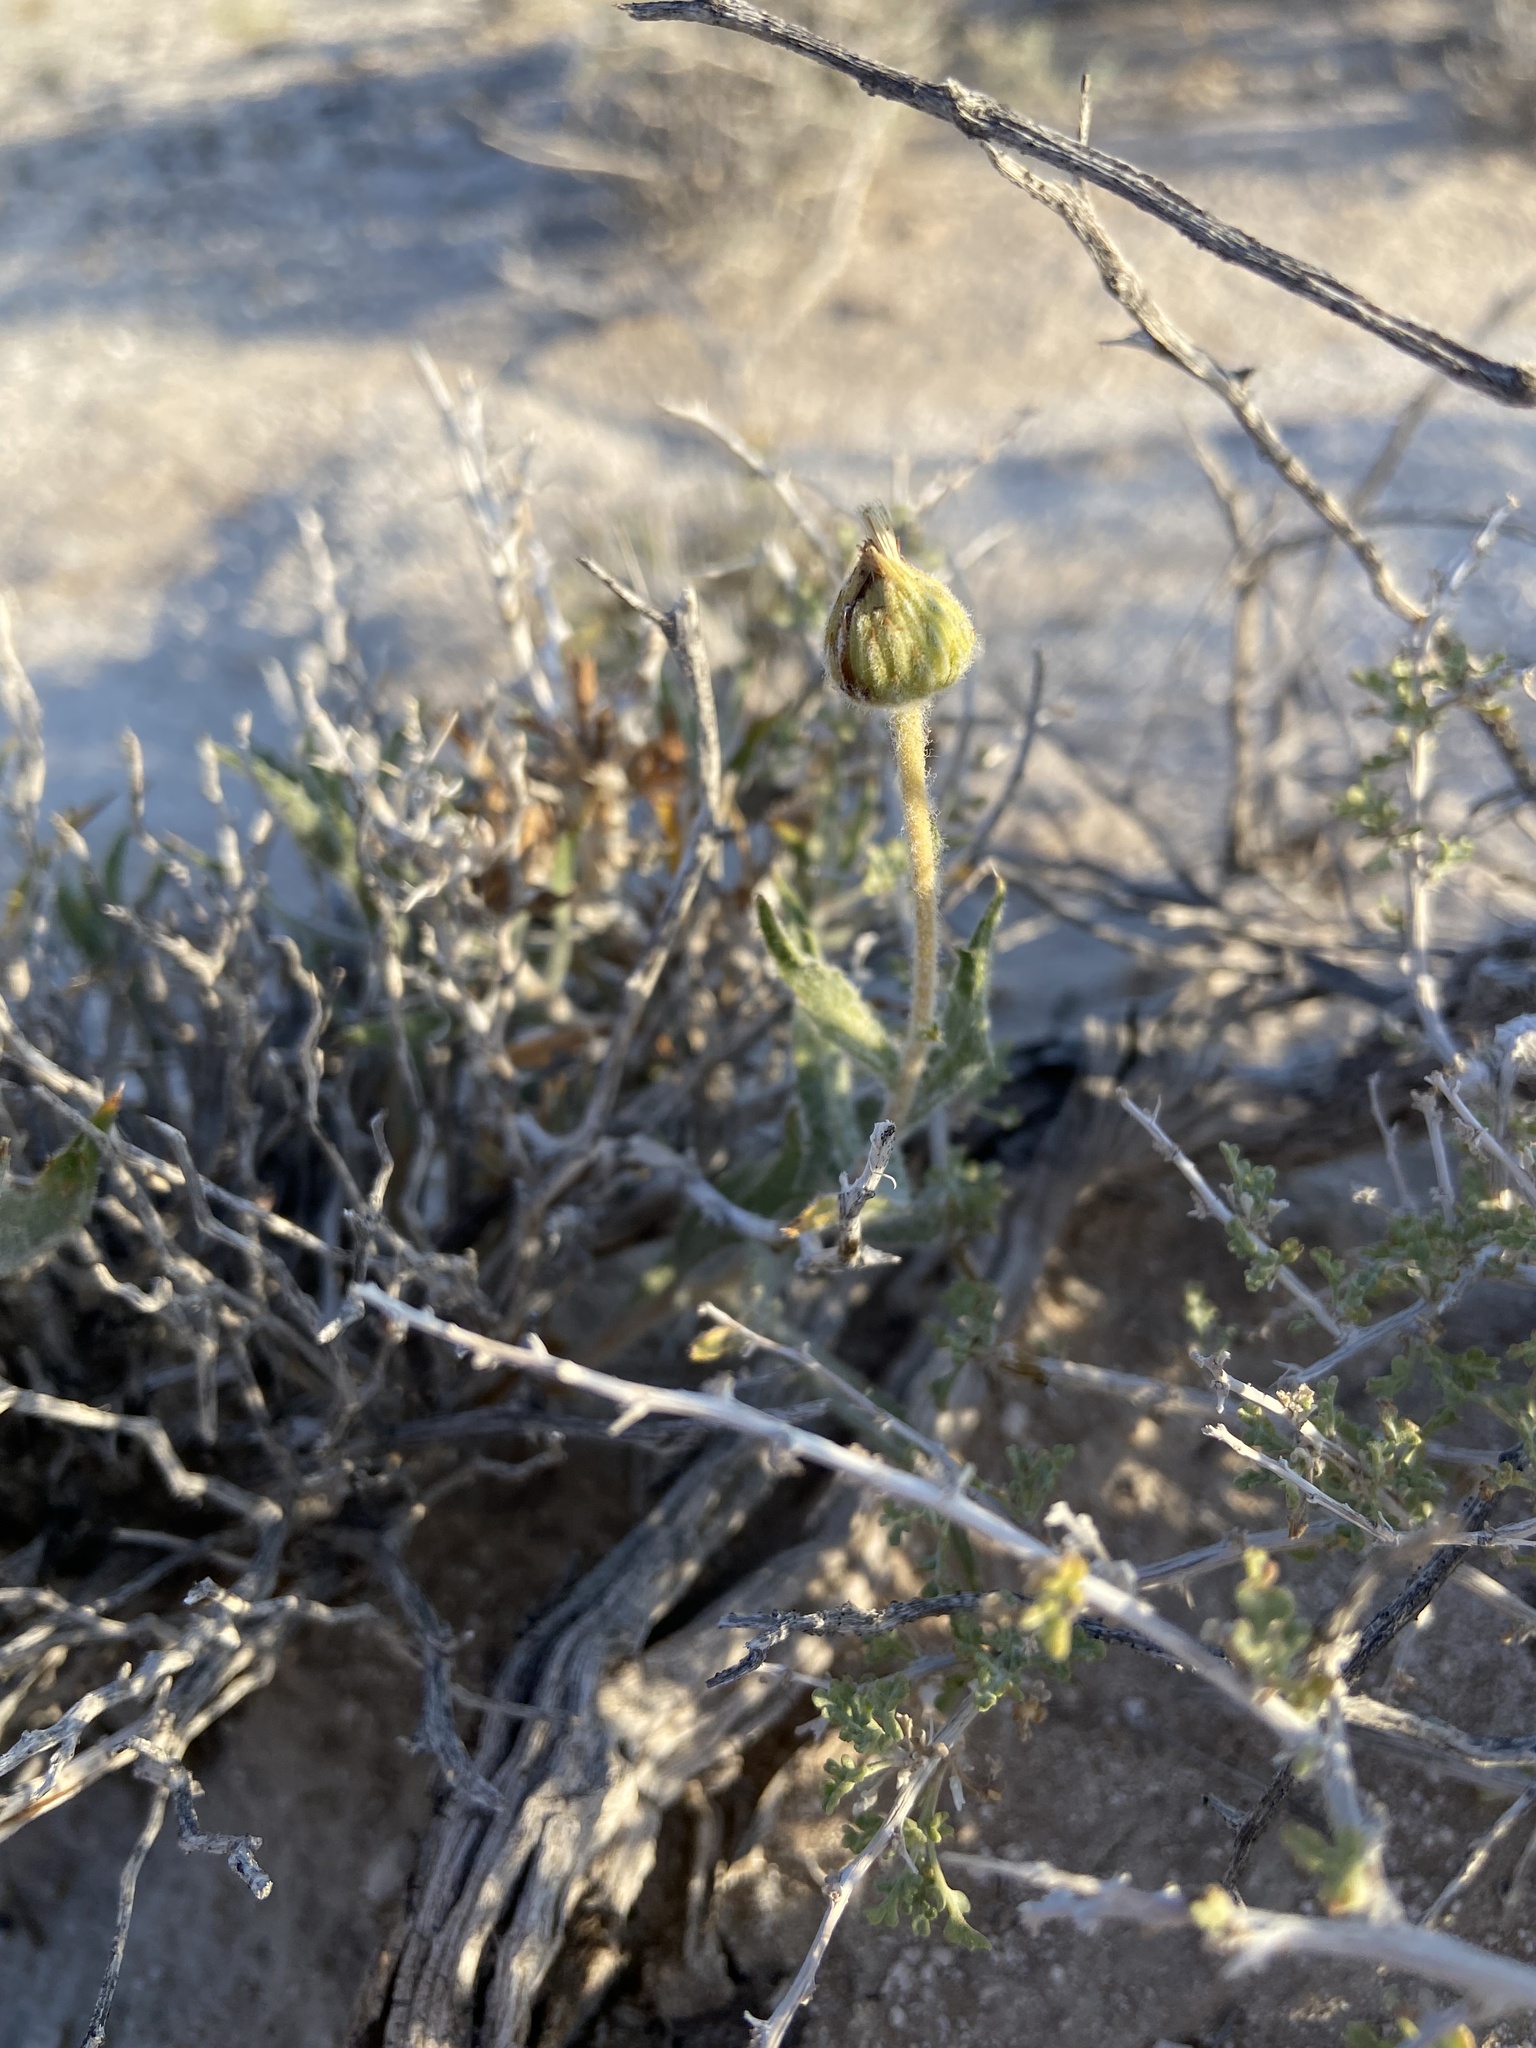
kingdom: Plantae
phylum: Tracheophyta
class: Magnoliopsida
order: Asterales
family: Asteraceae
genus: Xylorhiza
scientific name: Xylorhiza tortifolia
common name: Hurt-leaf woody-aster
